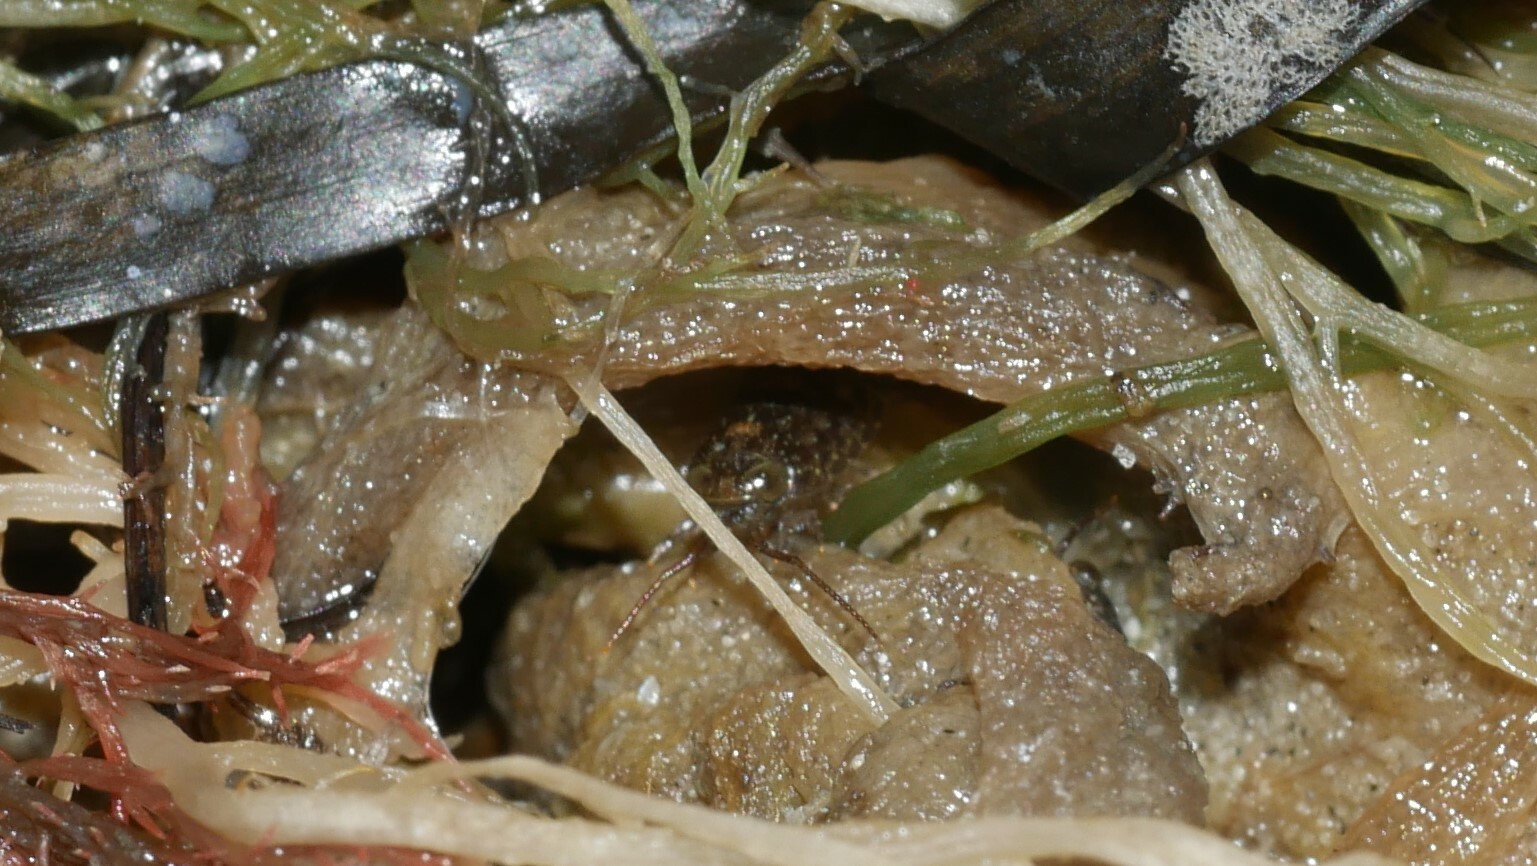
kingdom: Animalia
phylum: Arthropoda
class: Malacostraca
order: Isopoda
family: Ligiidae
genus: Ligia
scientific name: Ligia exotica
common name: Wharf roach
